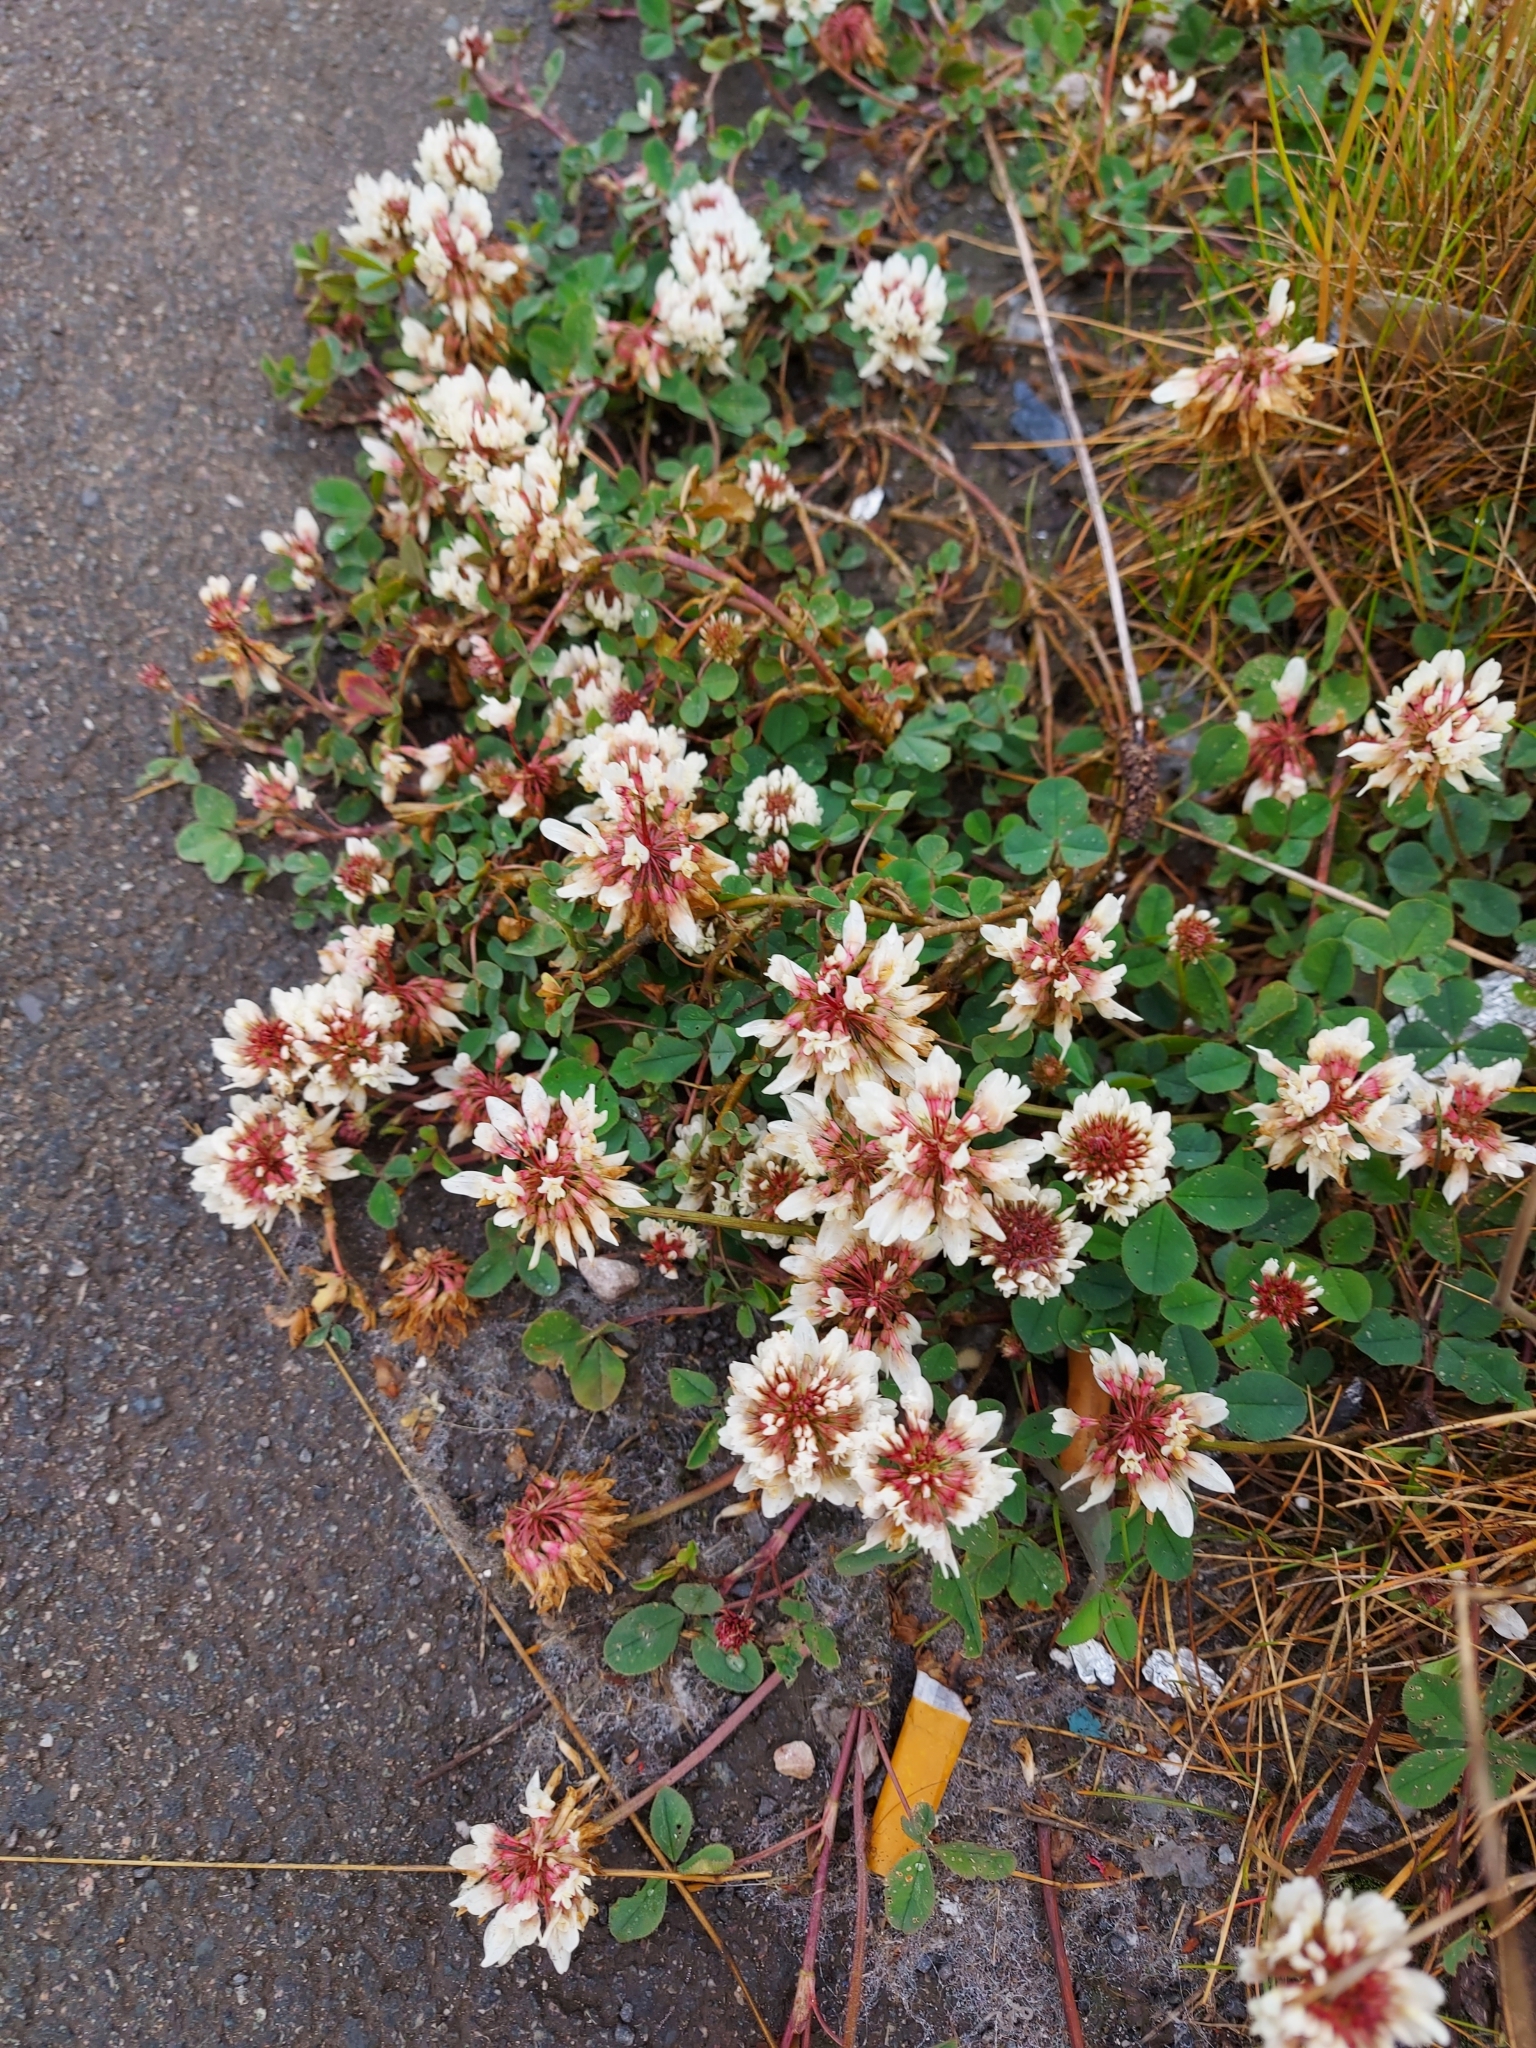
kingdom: Plantae
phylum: Tracheophyta
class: Magnoliopsida
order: Fabales
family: Fabaceae
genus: Trifolium
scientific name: Trifolium repens
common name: White clover
